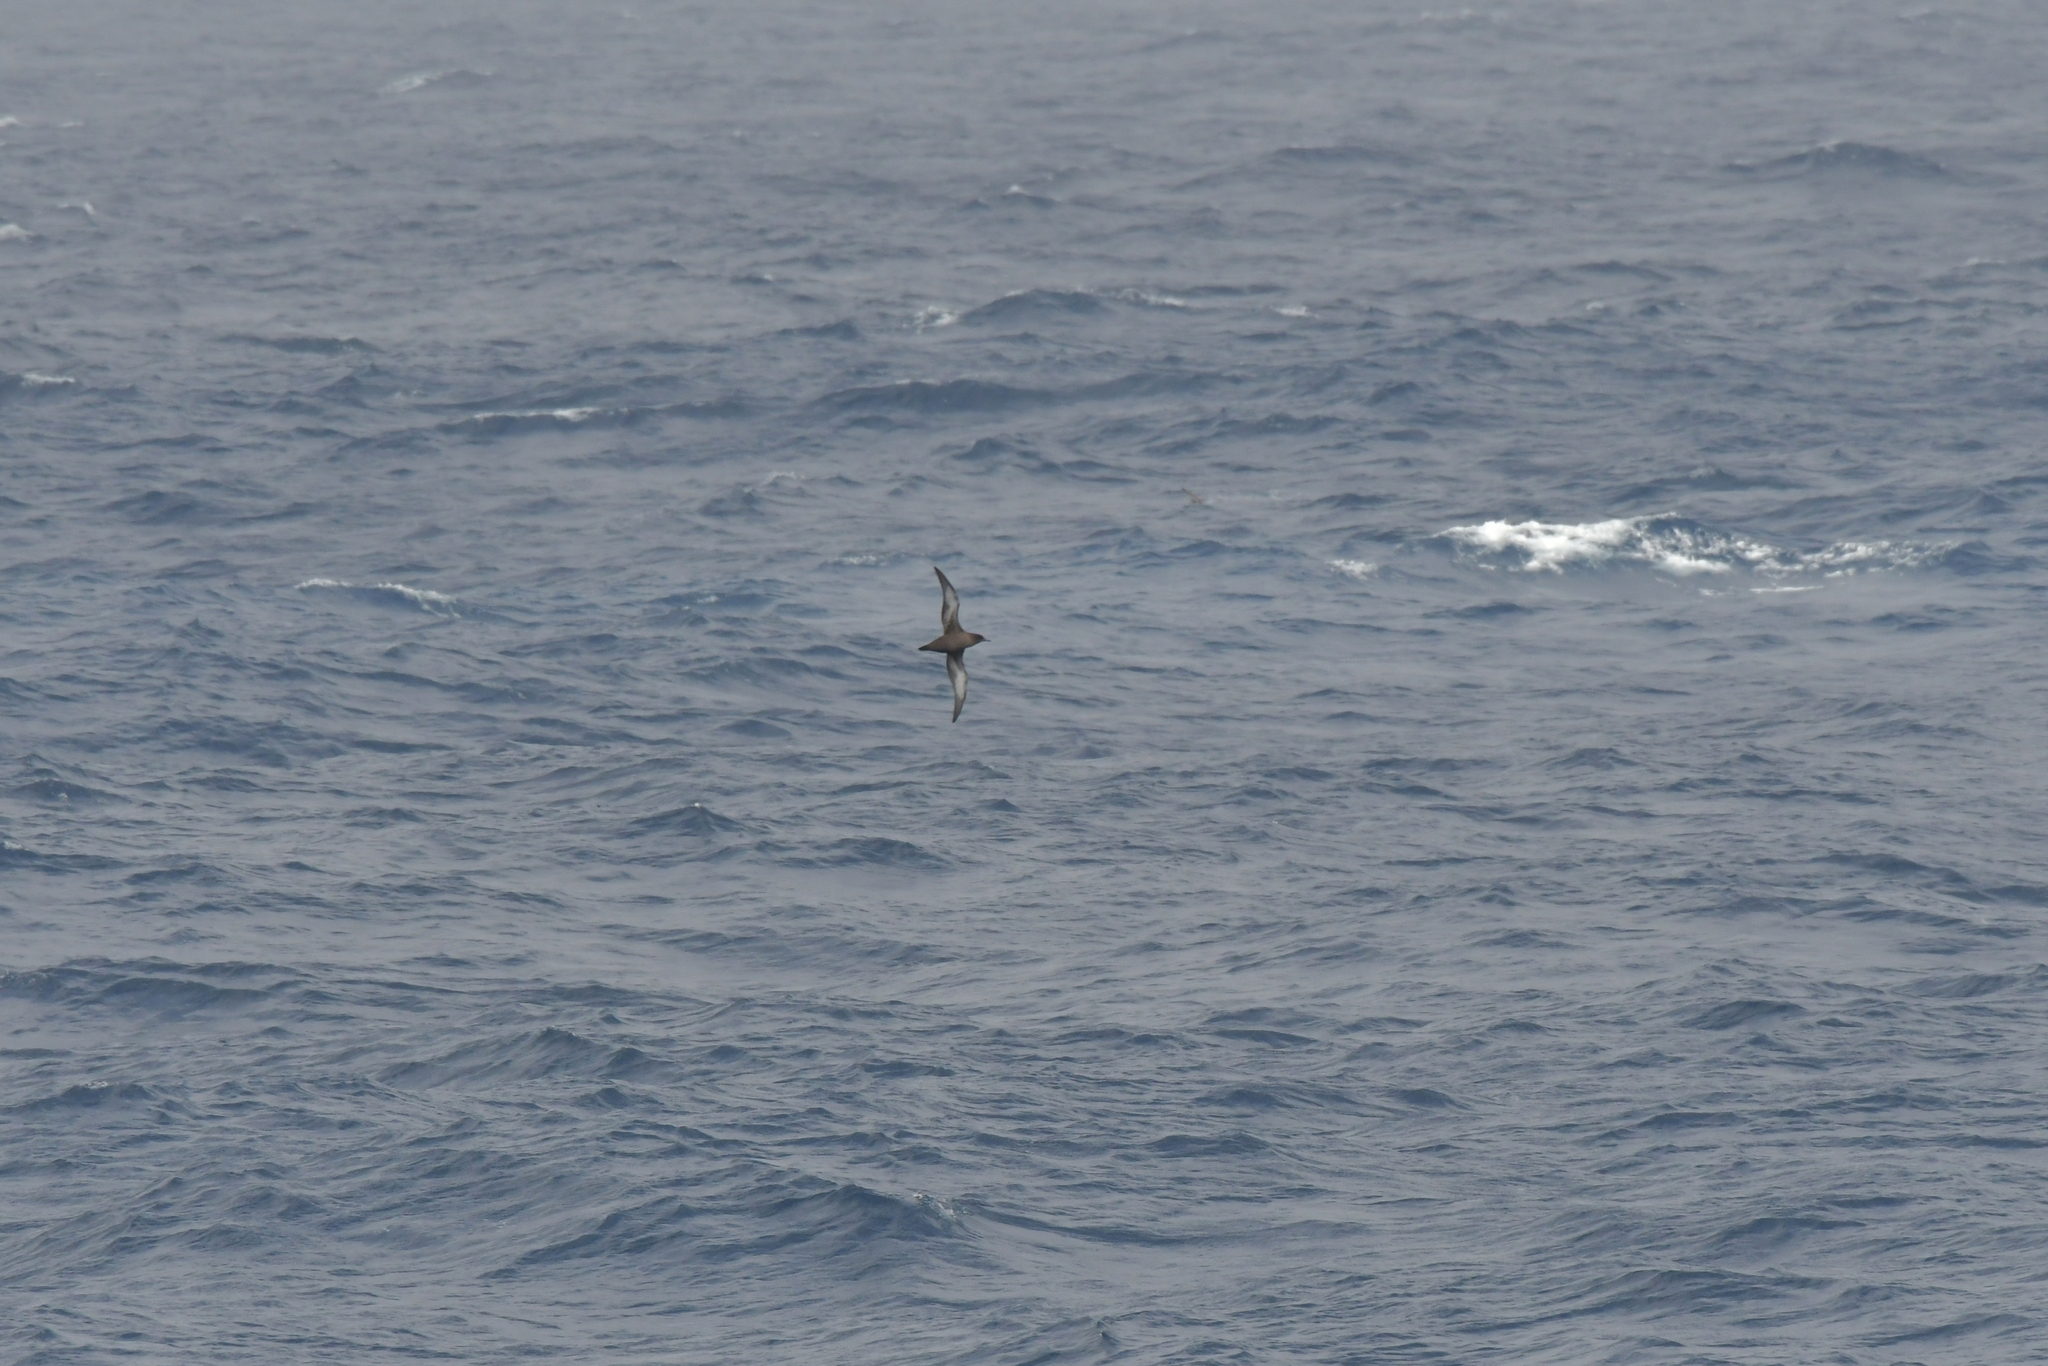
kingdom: Animalia
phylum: Chordata
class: Aves
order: Procellariiformes
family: Procellariidae
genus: Puffinus
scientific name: Puffinus griseus
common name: Sooty shearwater
